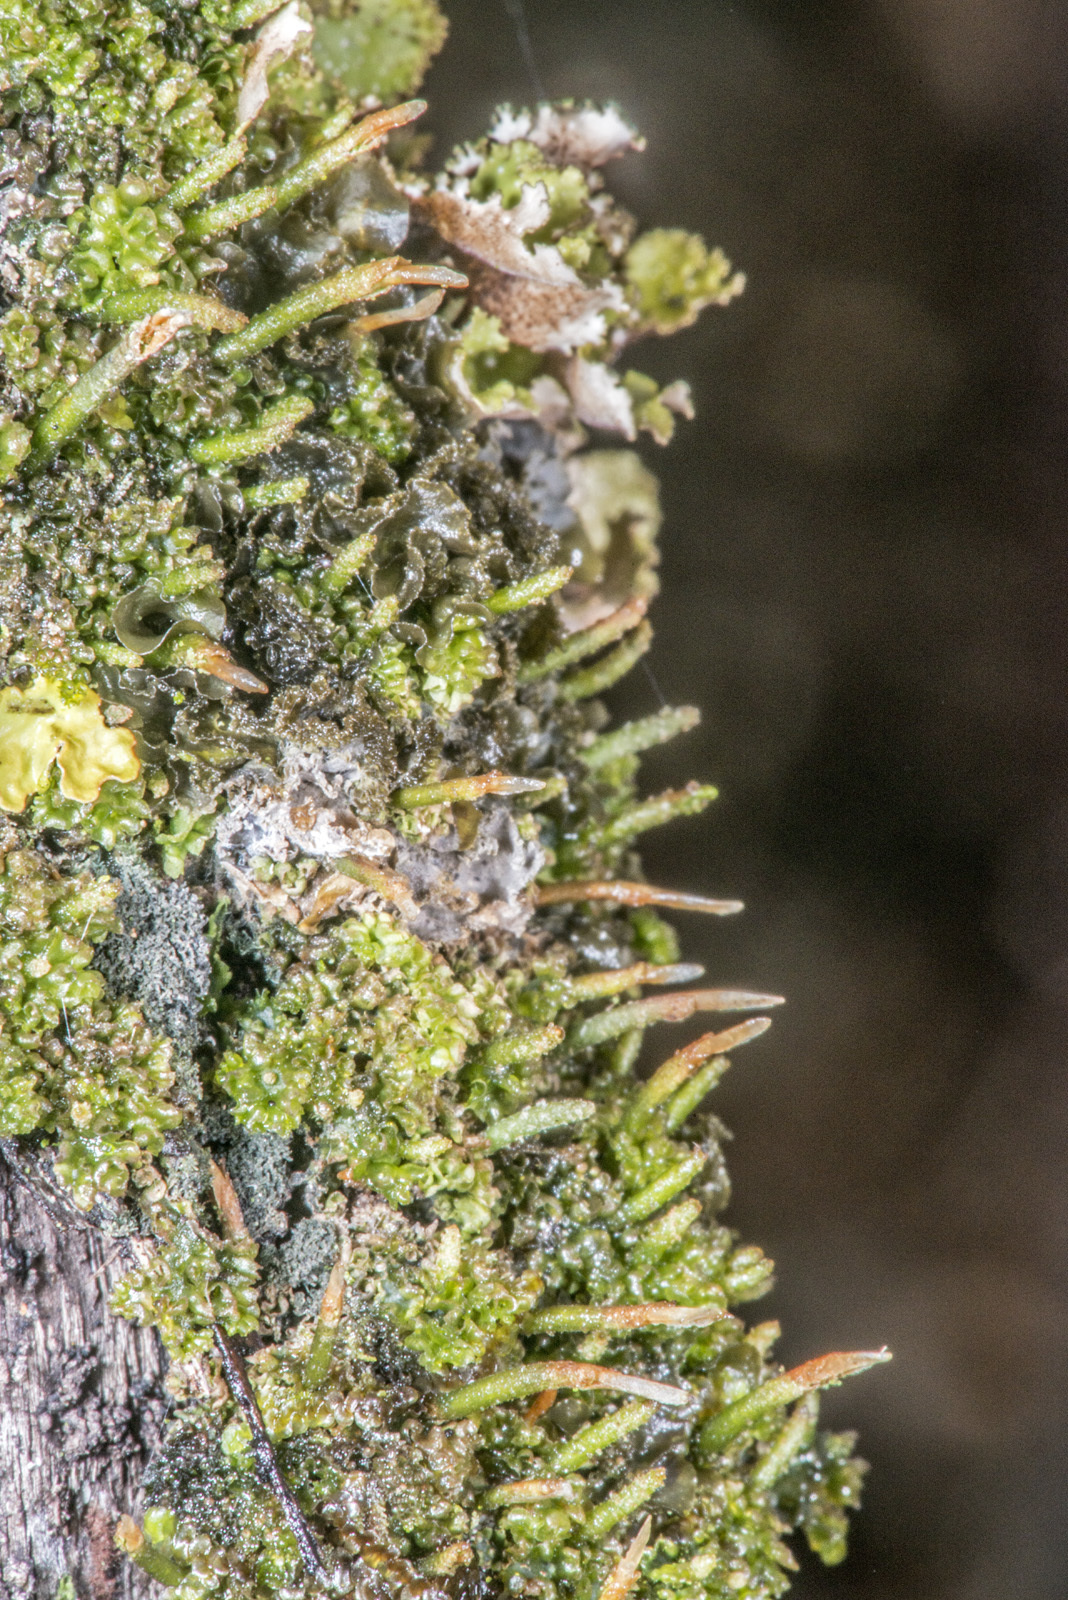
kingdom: Plantae
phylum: Anthocerotophyta
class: Anthocerotopsida
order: Dendrocerotales
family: Dendrocerotaceae
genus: Dendroceros
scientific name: Dendroceros granulatus
